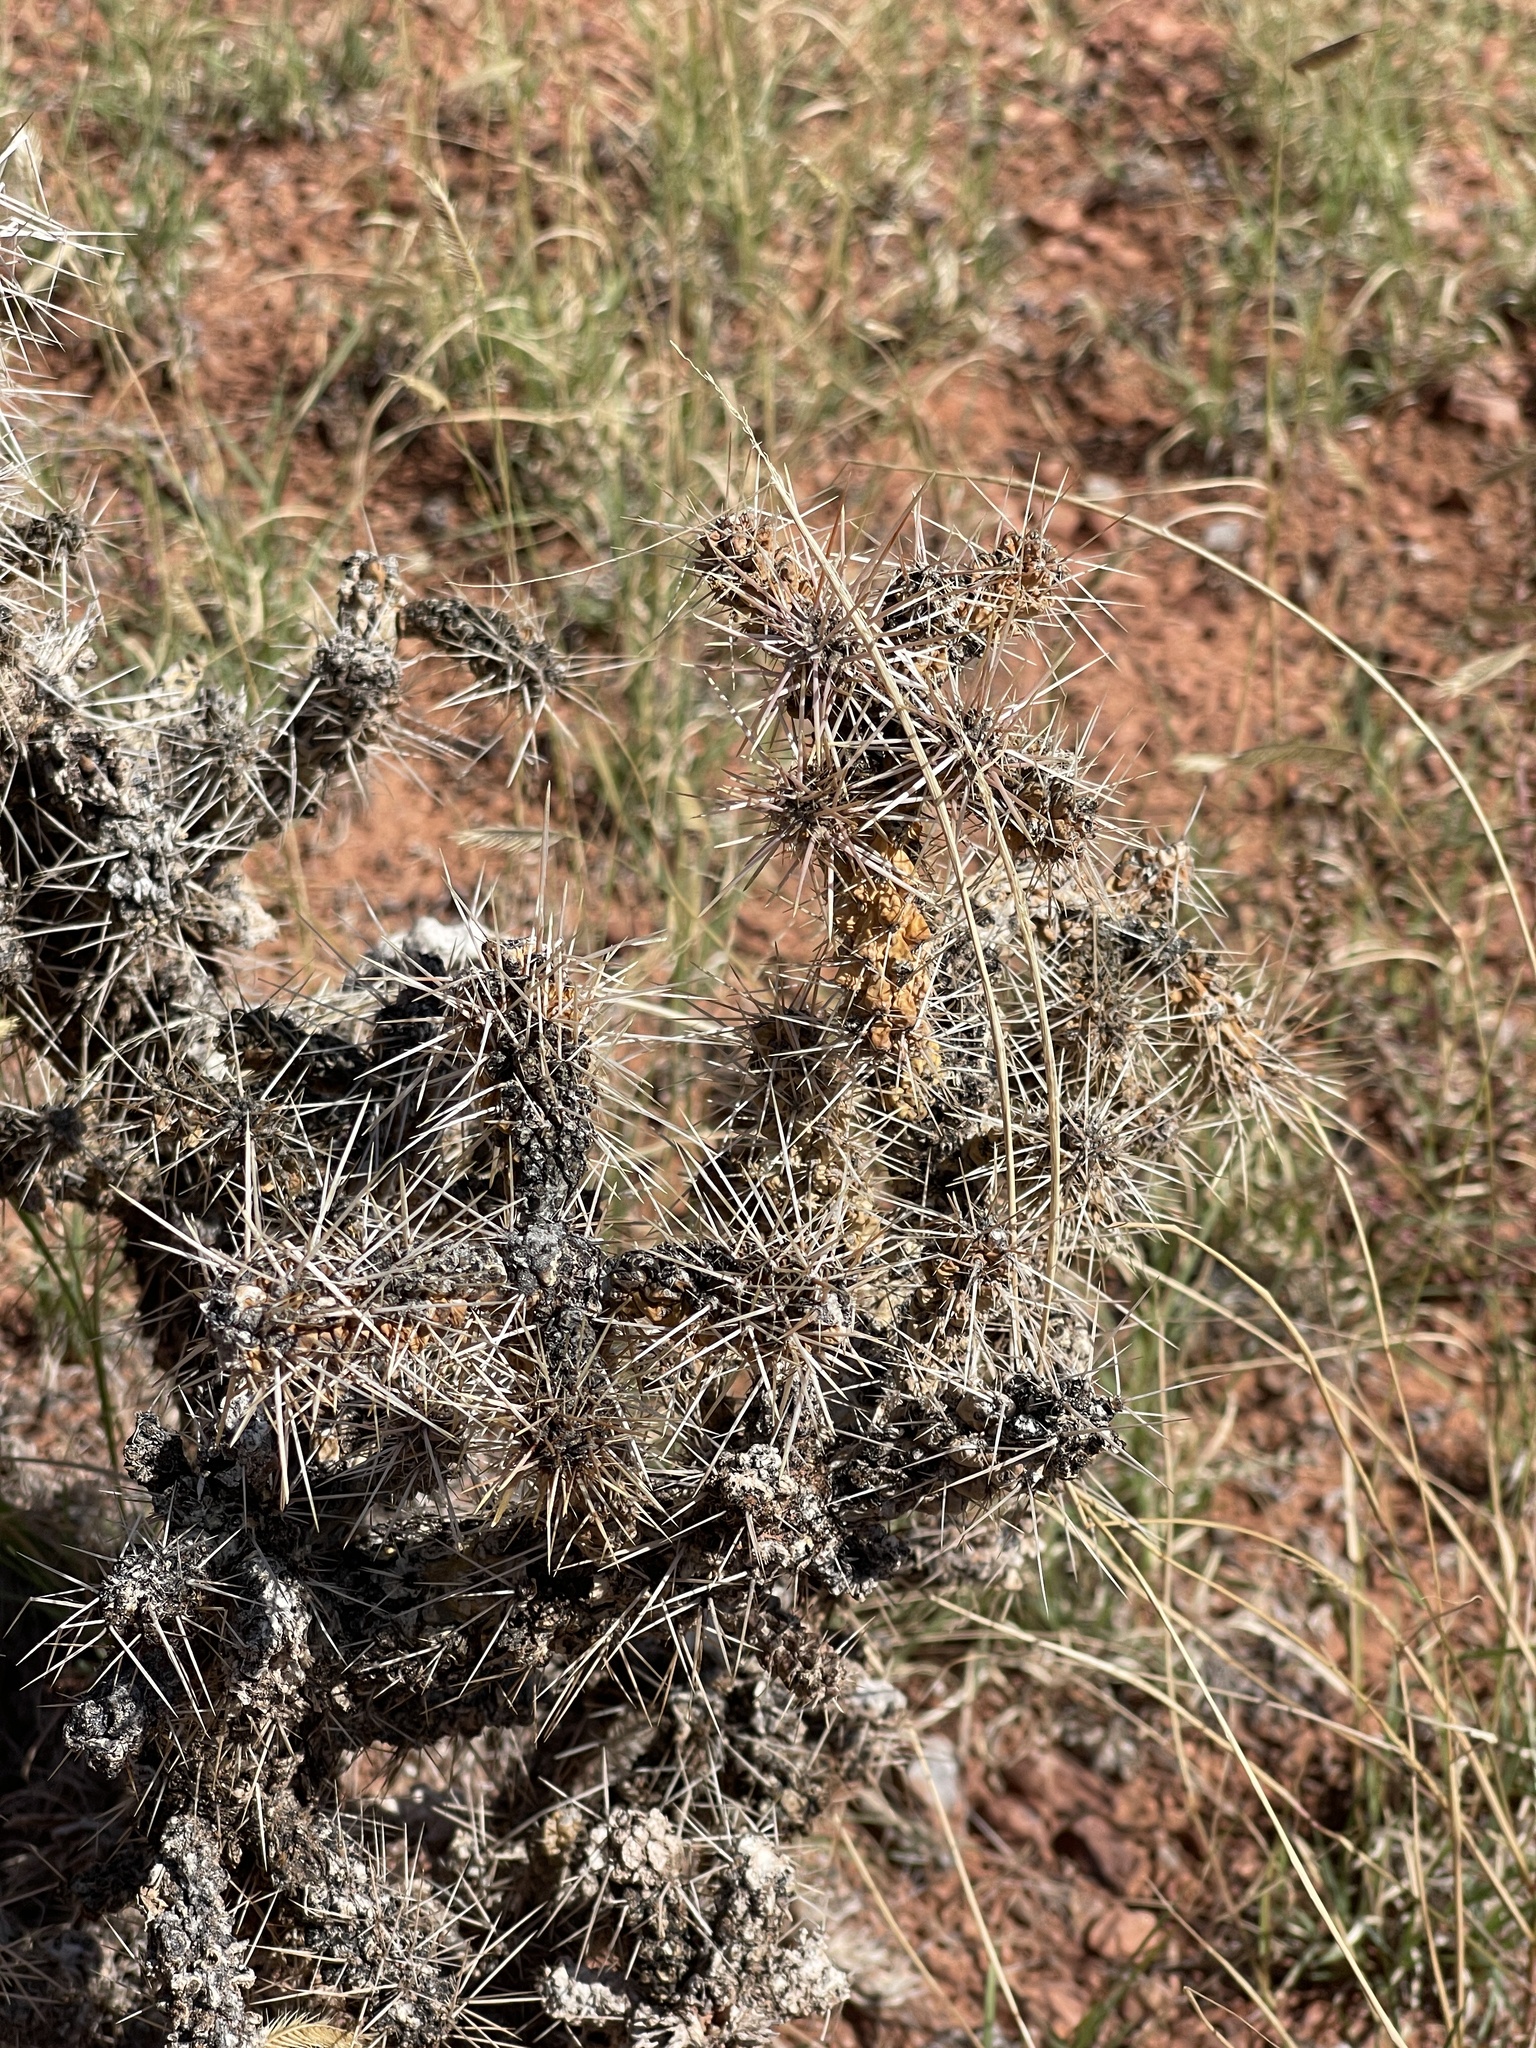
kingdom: Plantae
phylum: Tracheophyta
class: Magnoliopsida
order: Caryophyllales
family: Cactaceae
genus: Cylindropuntia
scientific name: Cylindropuntia whipplei
